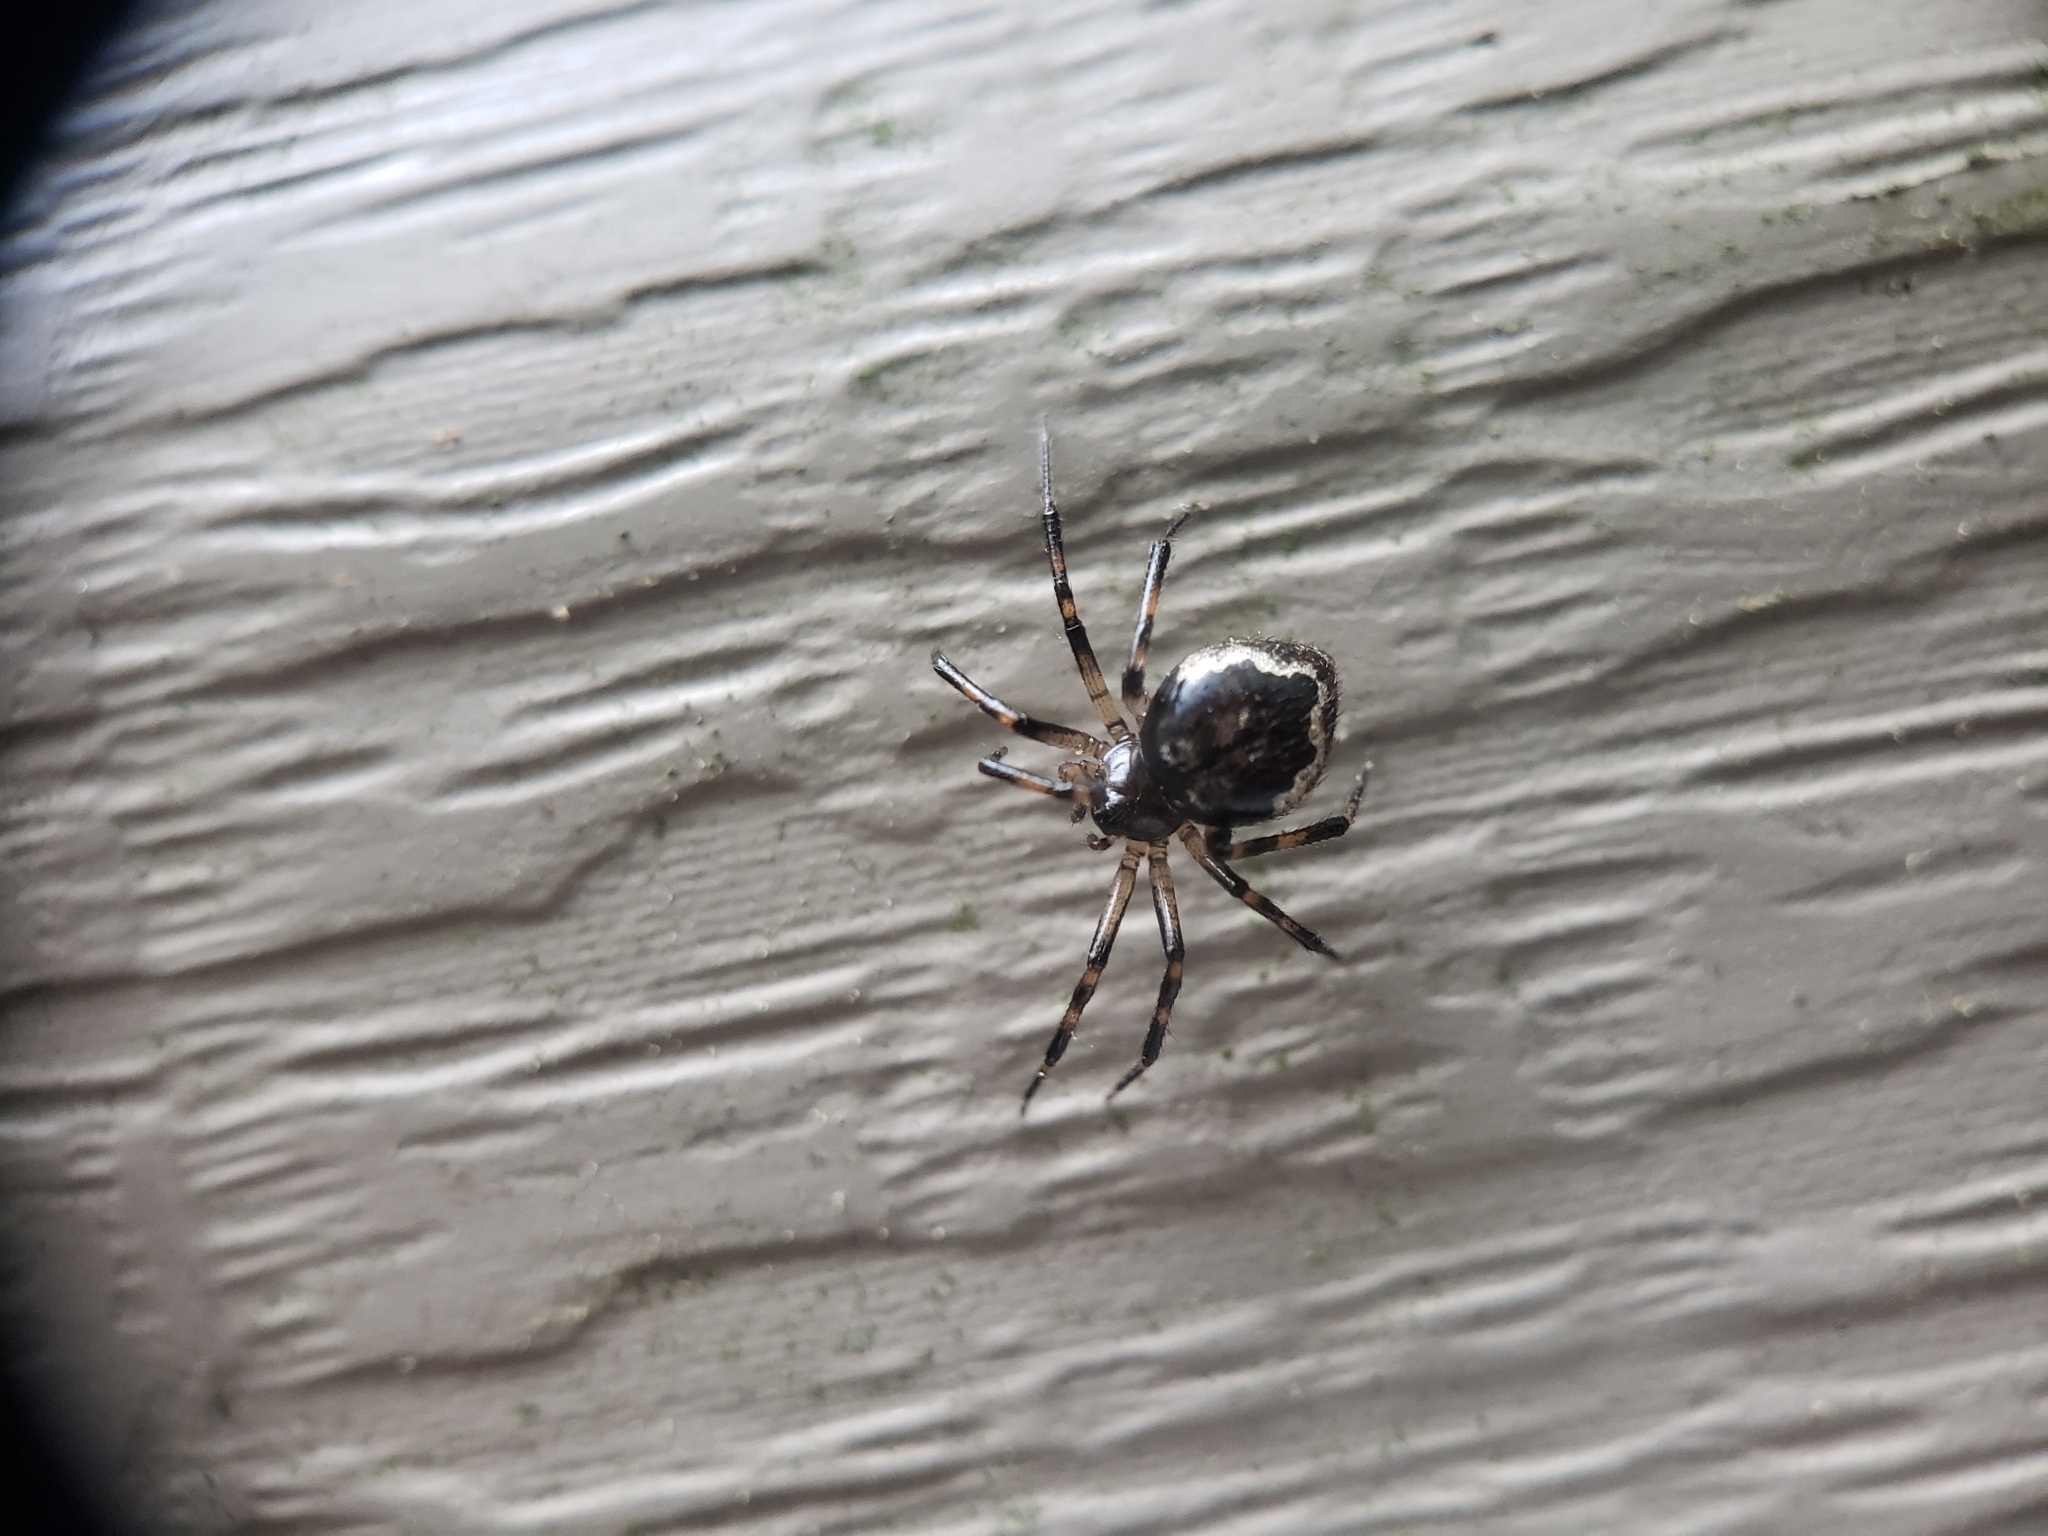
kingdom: Animalia
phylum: Arthropoda
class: Arachnida
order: Araneae
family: Theridiidae
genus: Euryopis
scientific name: Euryopis funebris
